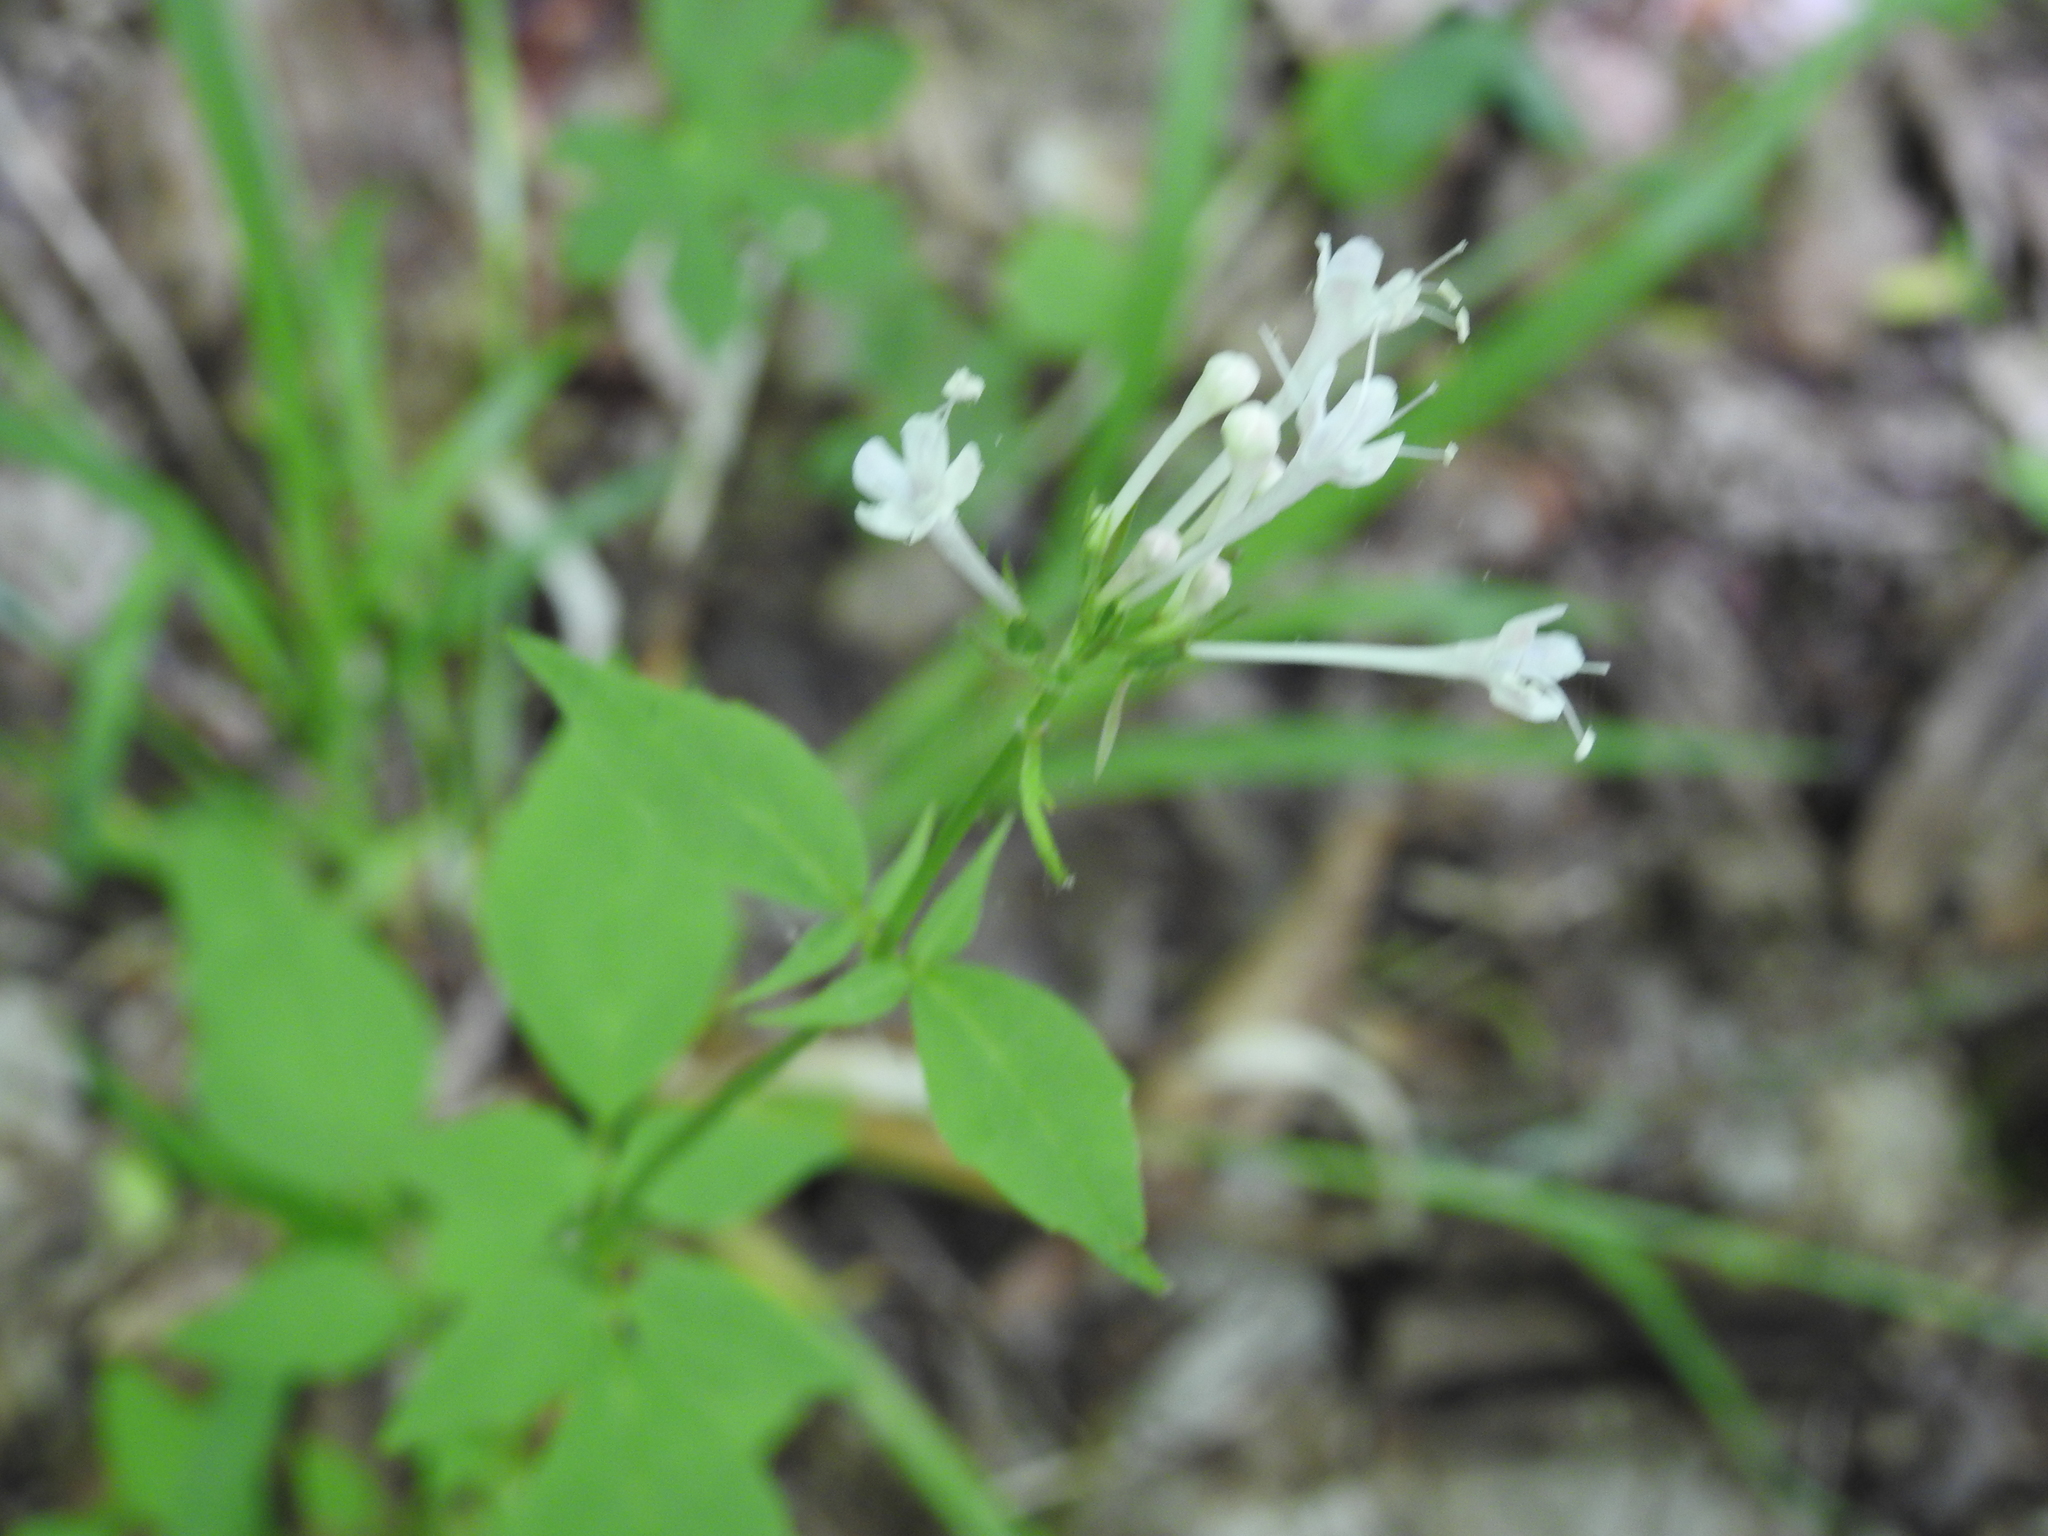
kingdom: Plantae
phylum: Tracheophyta
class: Magnoliopsida
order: Dipsacales
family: Caprifoliaceae
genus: Valeriana
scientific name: Valeriana pauciflora
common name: Long-tube valeriana
